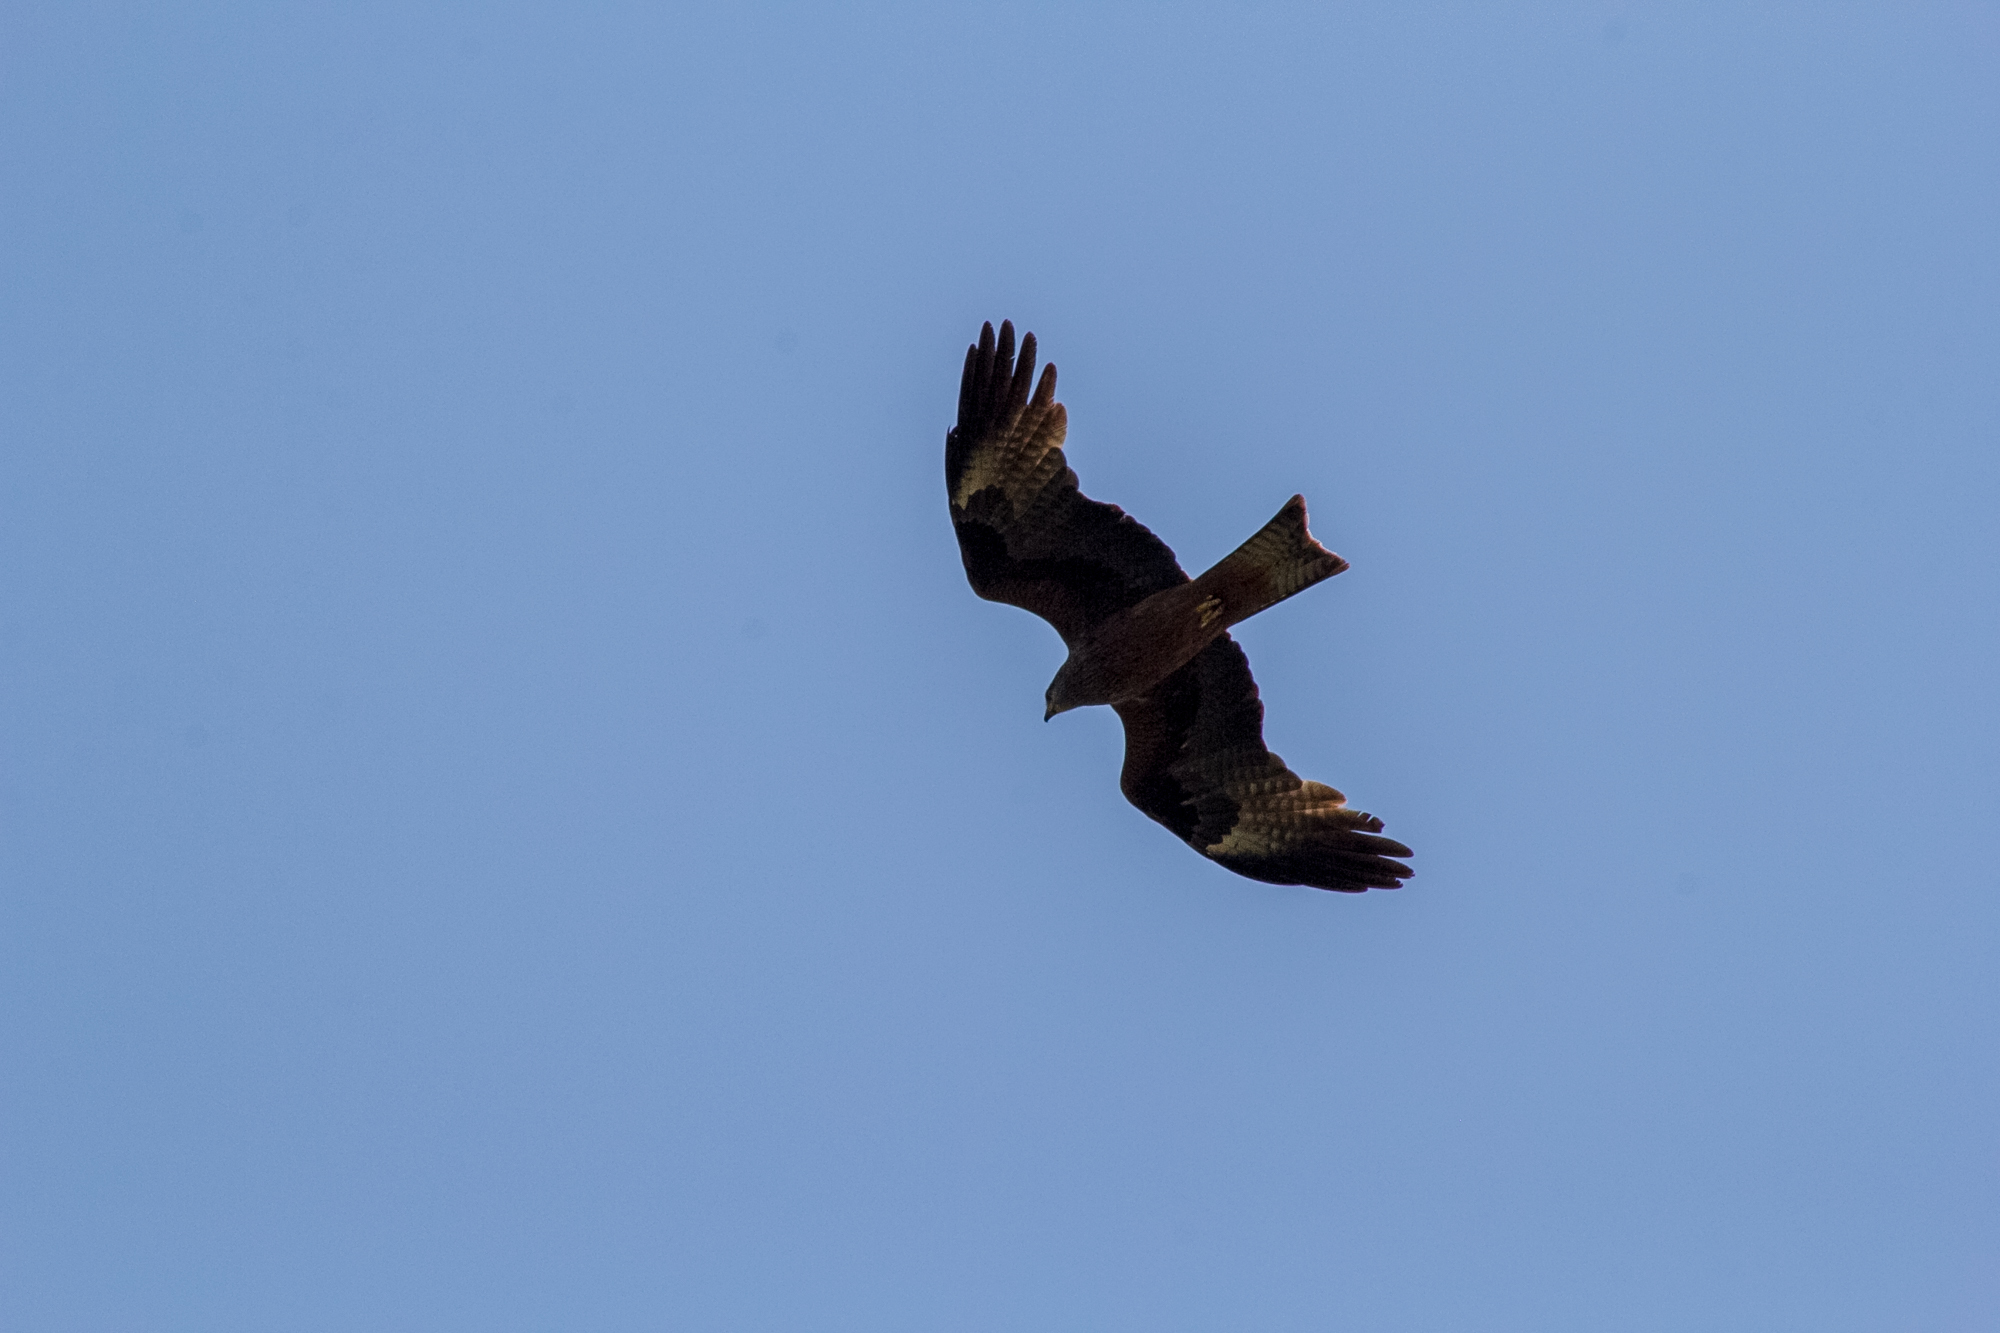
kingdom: Animalia
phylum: Chordata
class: Aves
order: Accipitriformes
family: Accipitridae
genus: Milvus
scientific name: Milvus migrans
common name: Black kite
